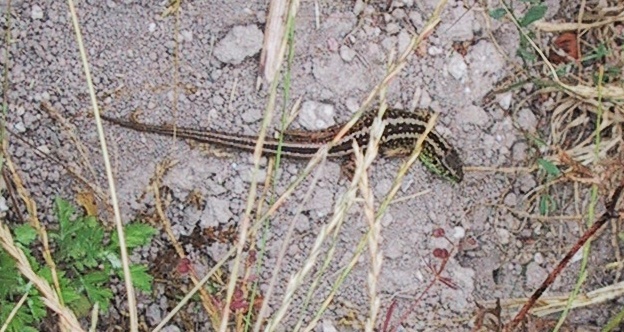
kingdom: Animalia
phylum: Chordata
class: Squamata
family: Lacertidae
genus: Lacerta
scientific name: Lacerta agilis
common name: Sand lizard
